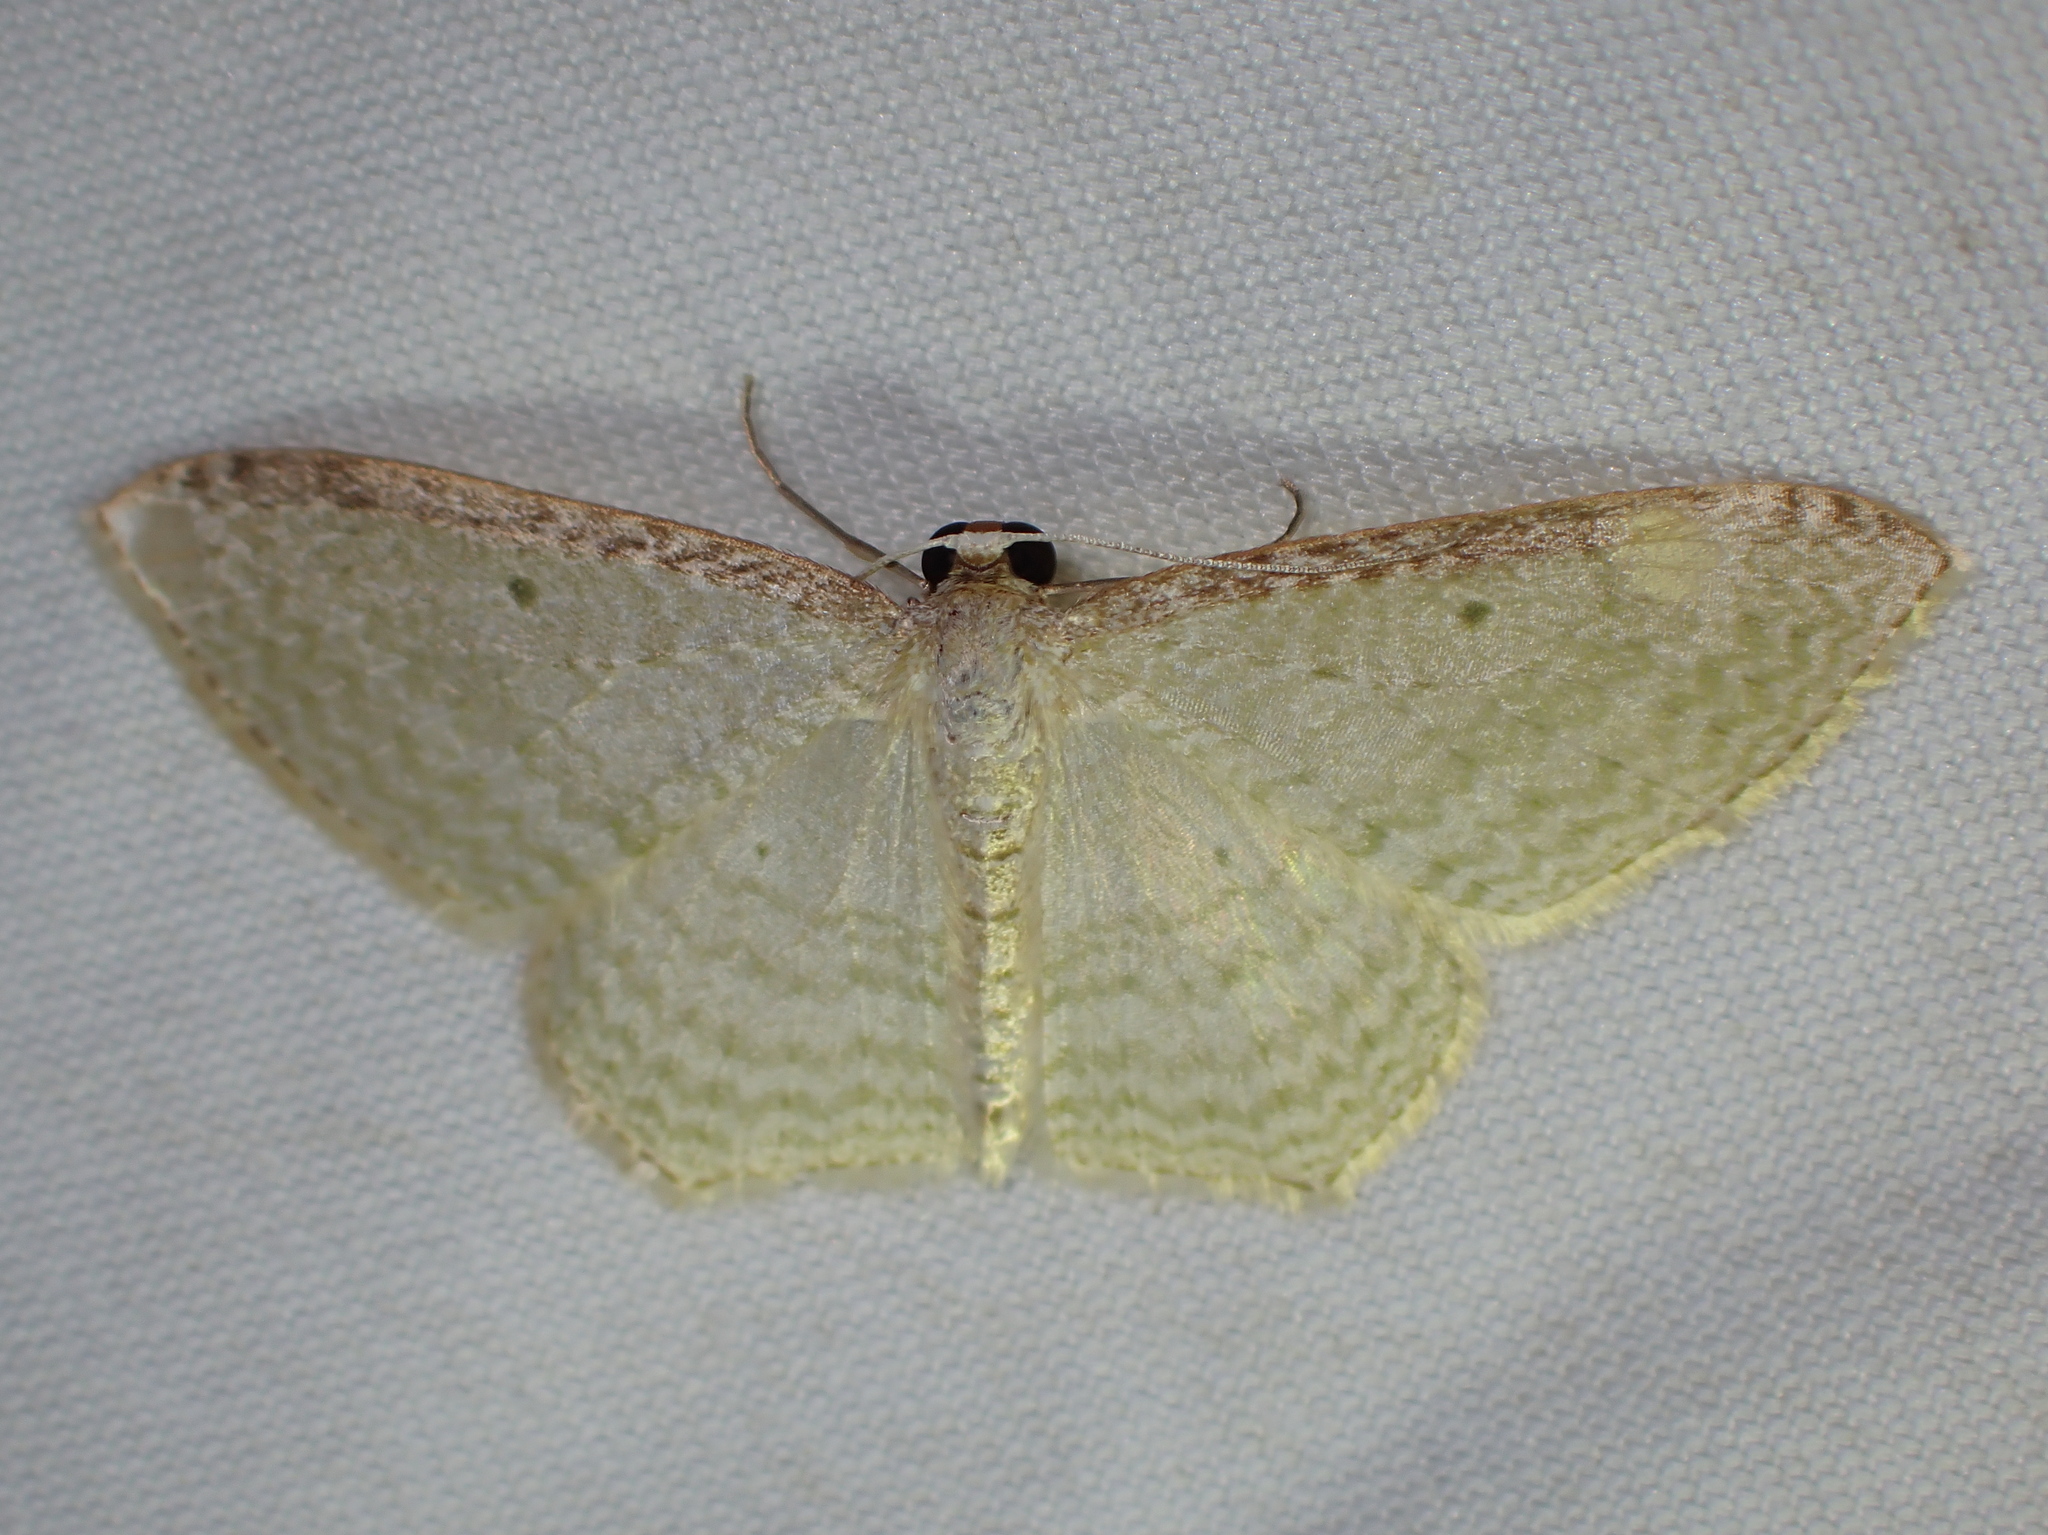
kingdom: Animalia
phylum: Arthropoda
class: Insecta
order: Lepidoptera
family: Geometridae
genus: Poecilasthena
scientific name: Poecilasthena pulchraria
